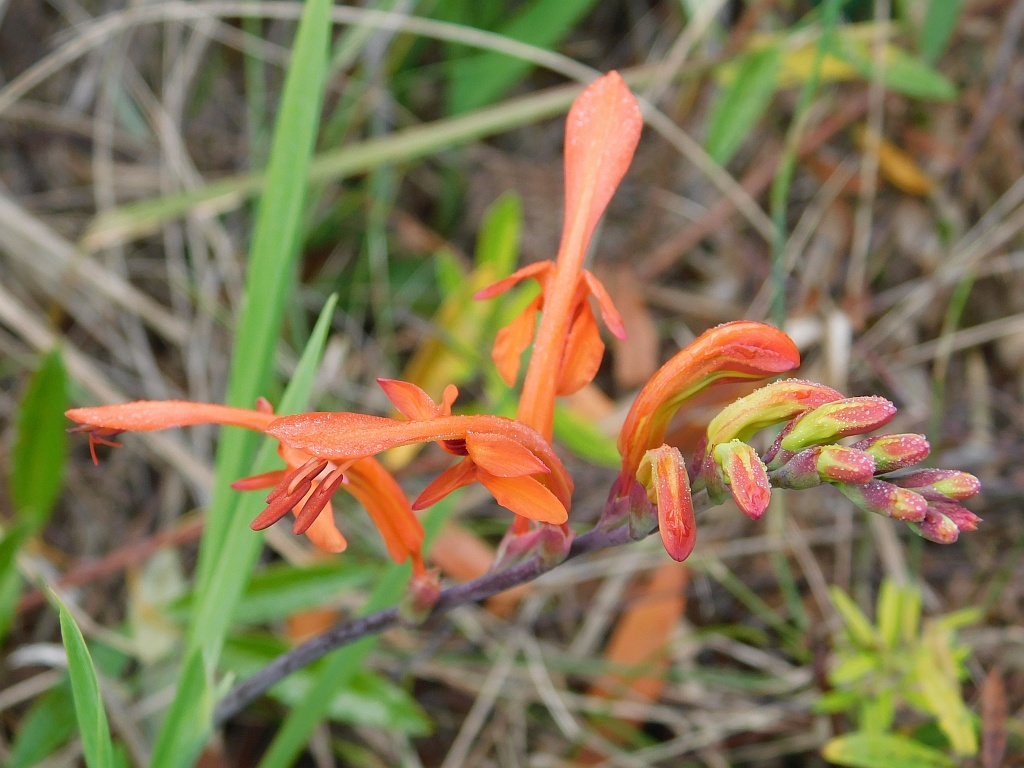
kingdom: Plantae
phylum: Tracheophyta
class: Liliopsida
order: Asparagales
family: Iridaceae
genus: Chasmanthe
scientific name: Chasmanthe aethiopica
